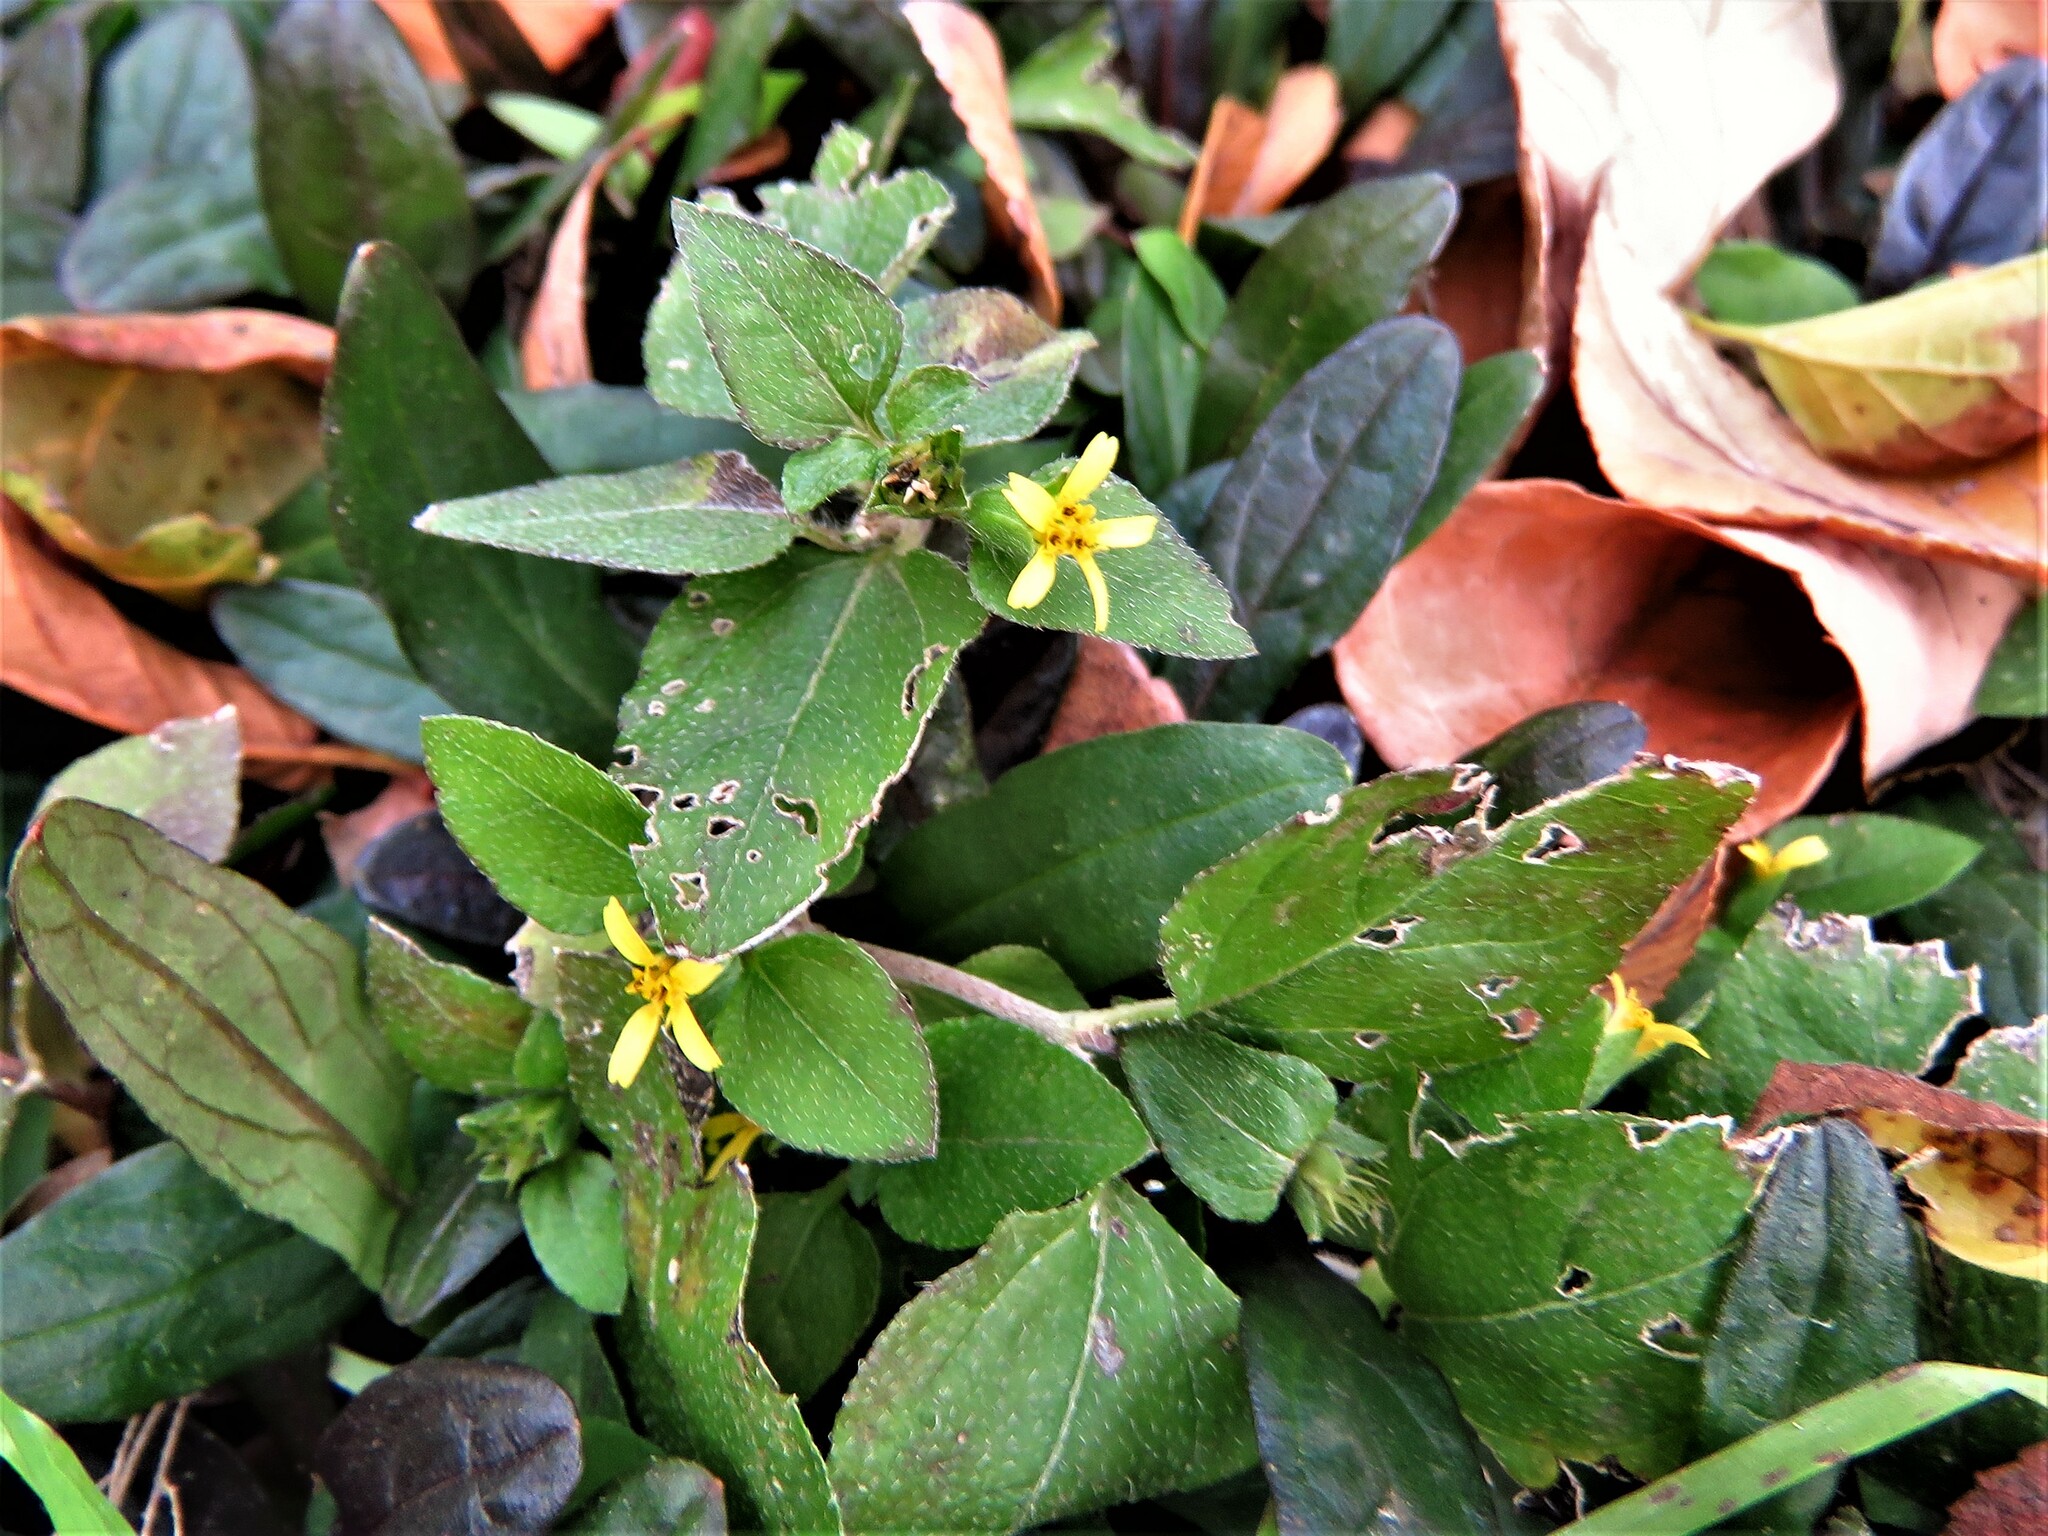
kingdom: Plantae
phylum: Tracheophyta
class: Magnoliopsida
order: Asterales
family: Asteraceae
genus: Calyptocarpus
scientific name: Calyptocarpus vialis
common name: Straggler daisy
